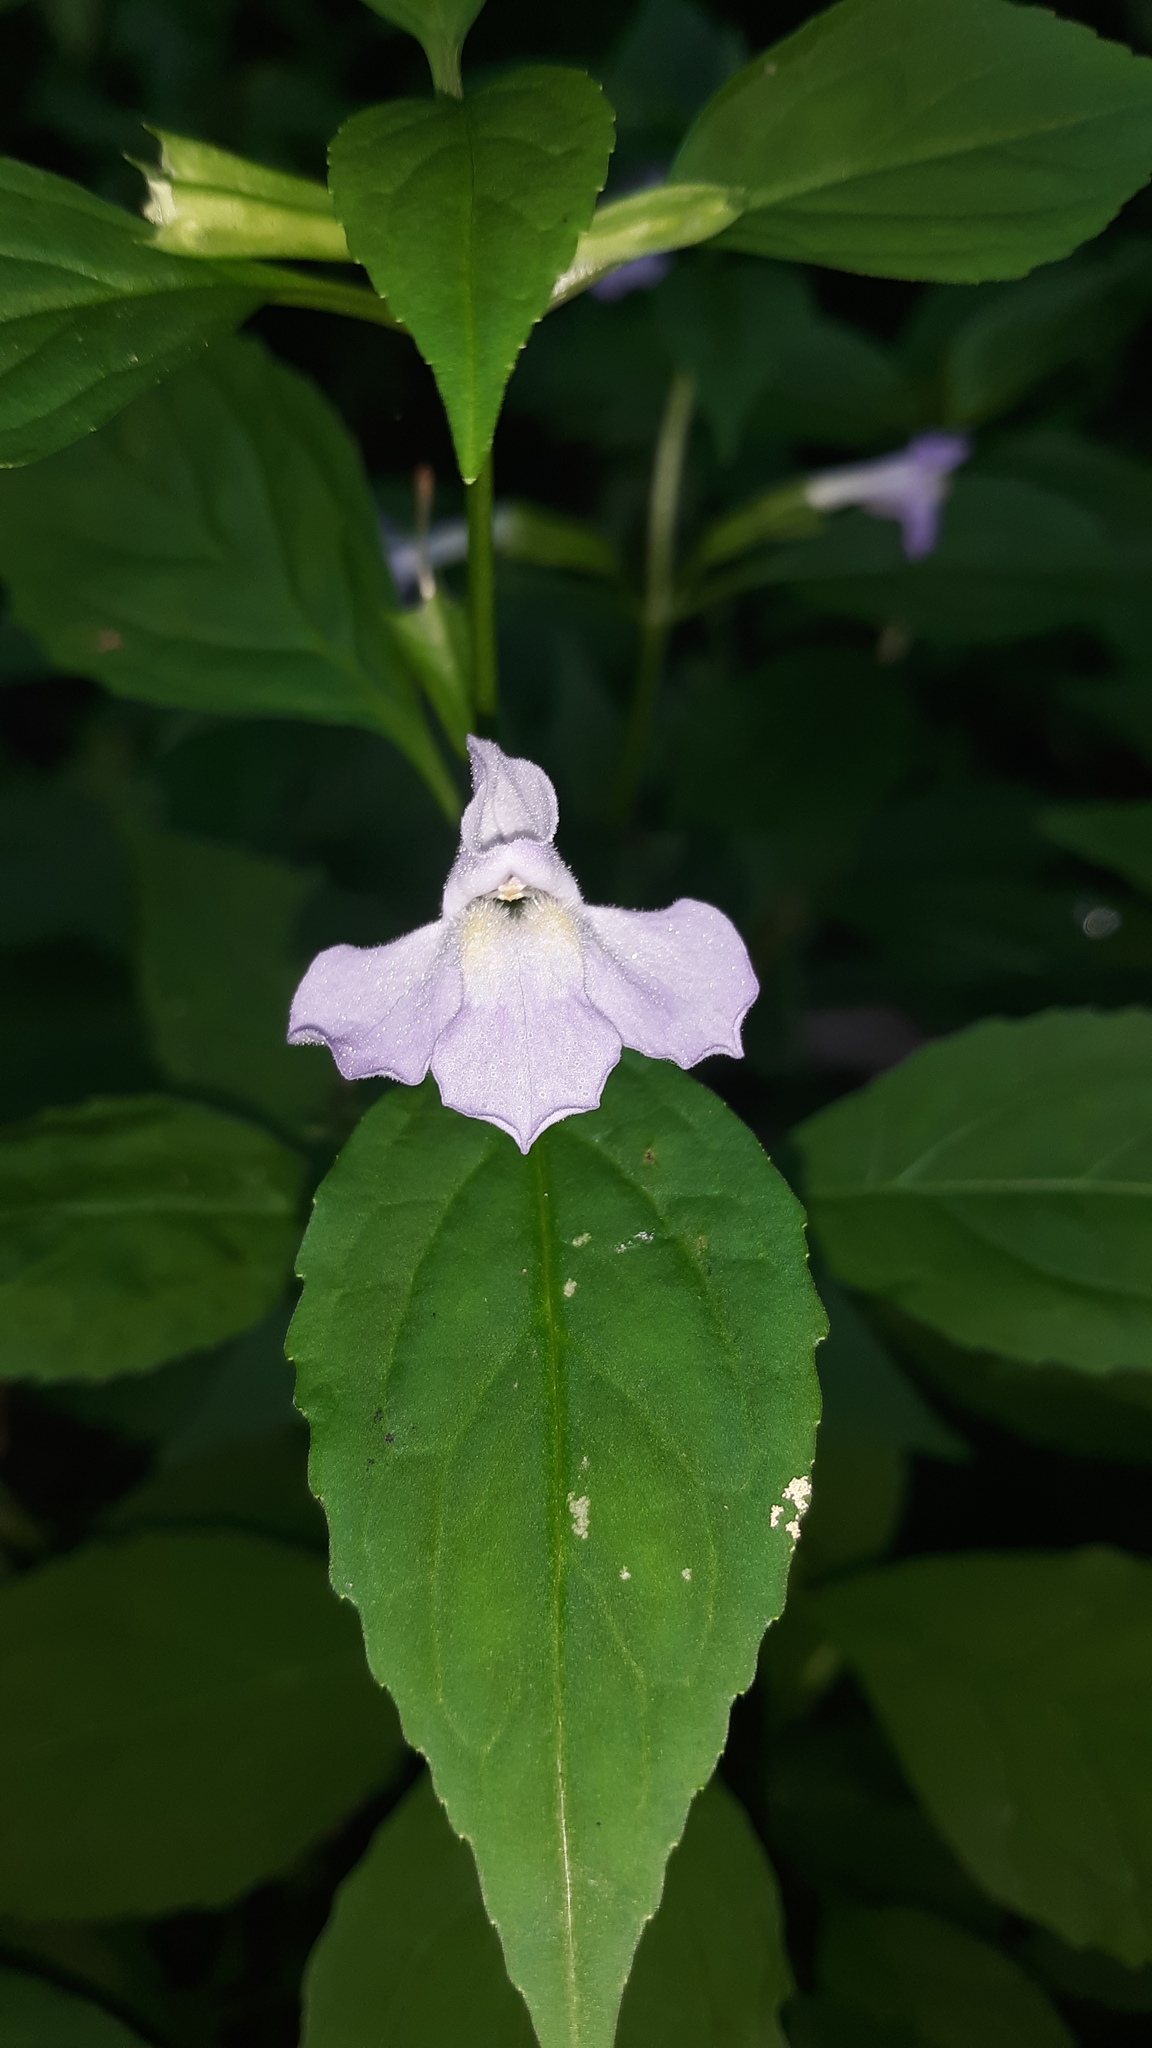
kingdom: Plantae
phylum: Tracheophyta
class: Magnoliopsida
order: Lamiales
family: Phrymaceae
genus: Mimulus
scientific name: Mimulus alatus
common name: Sharp-wing monkey-flower
